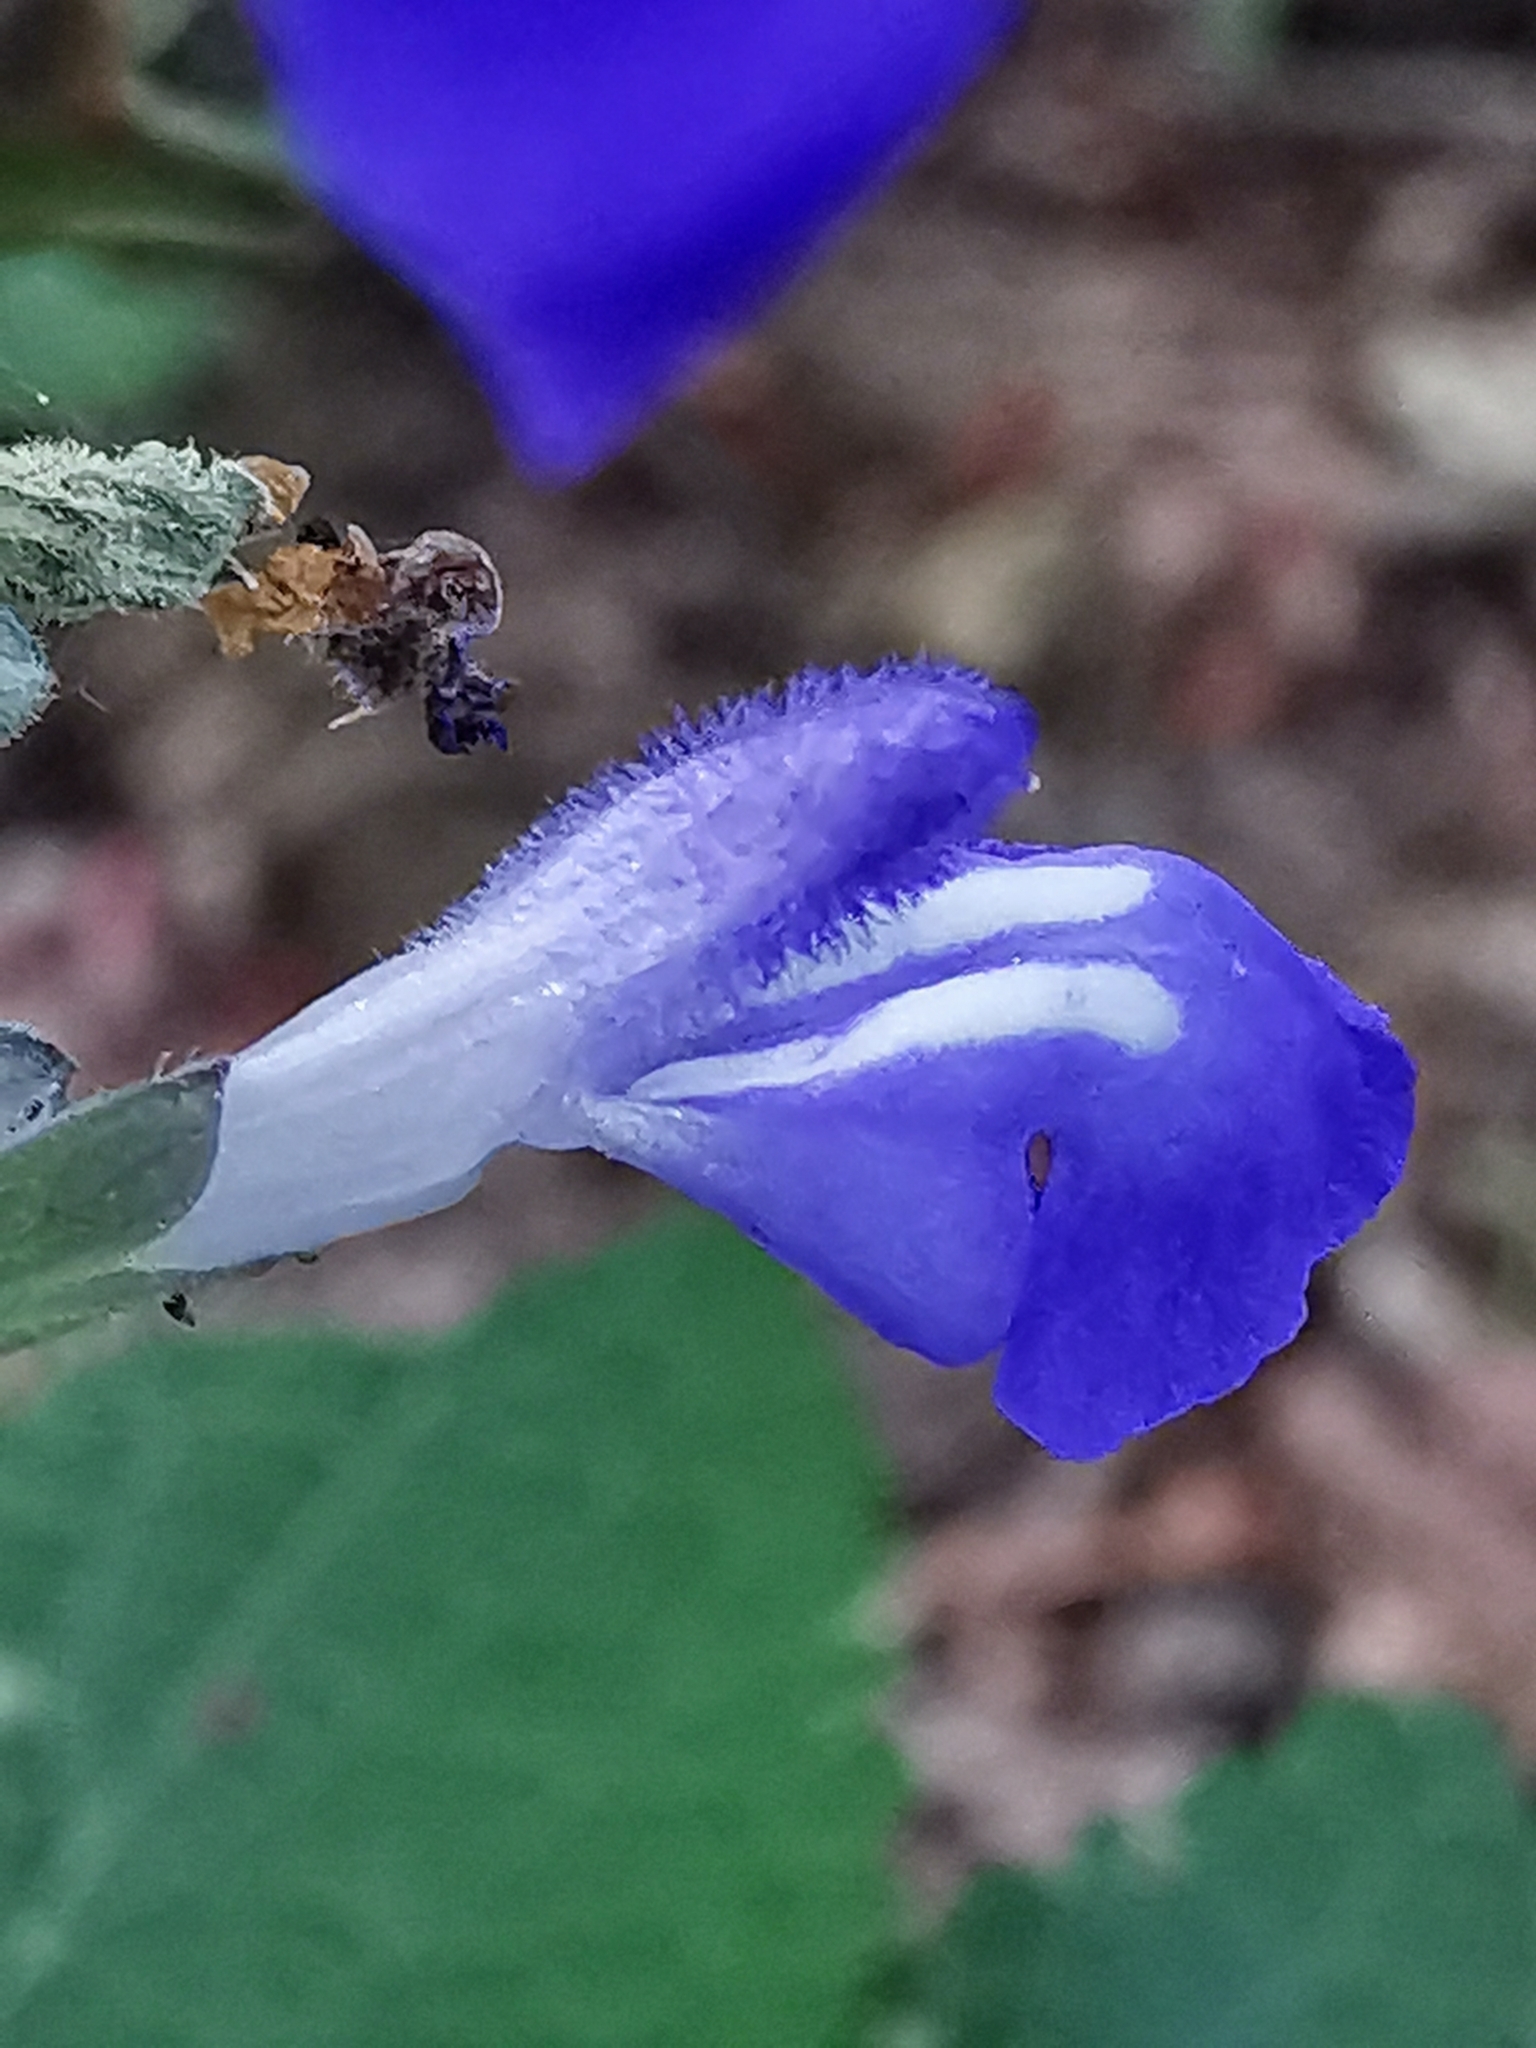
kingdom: Plantae
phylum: Tracheophyta
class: Magnoliopsida
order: Lamiales
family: Lamiaceae
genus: Salvia
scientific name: Salvia urolepis
